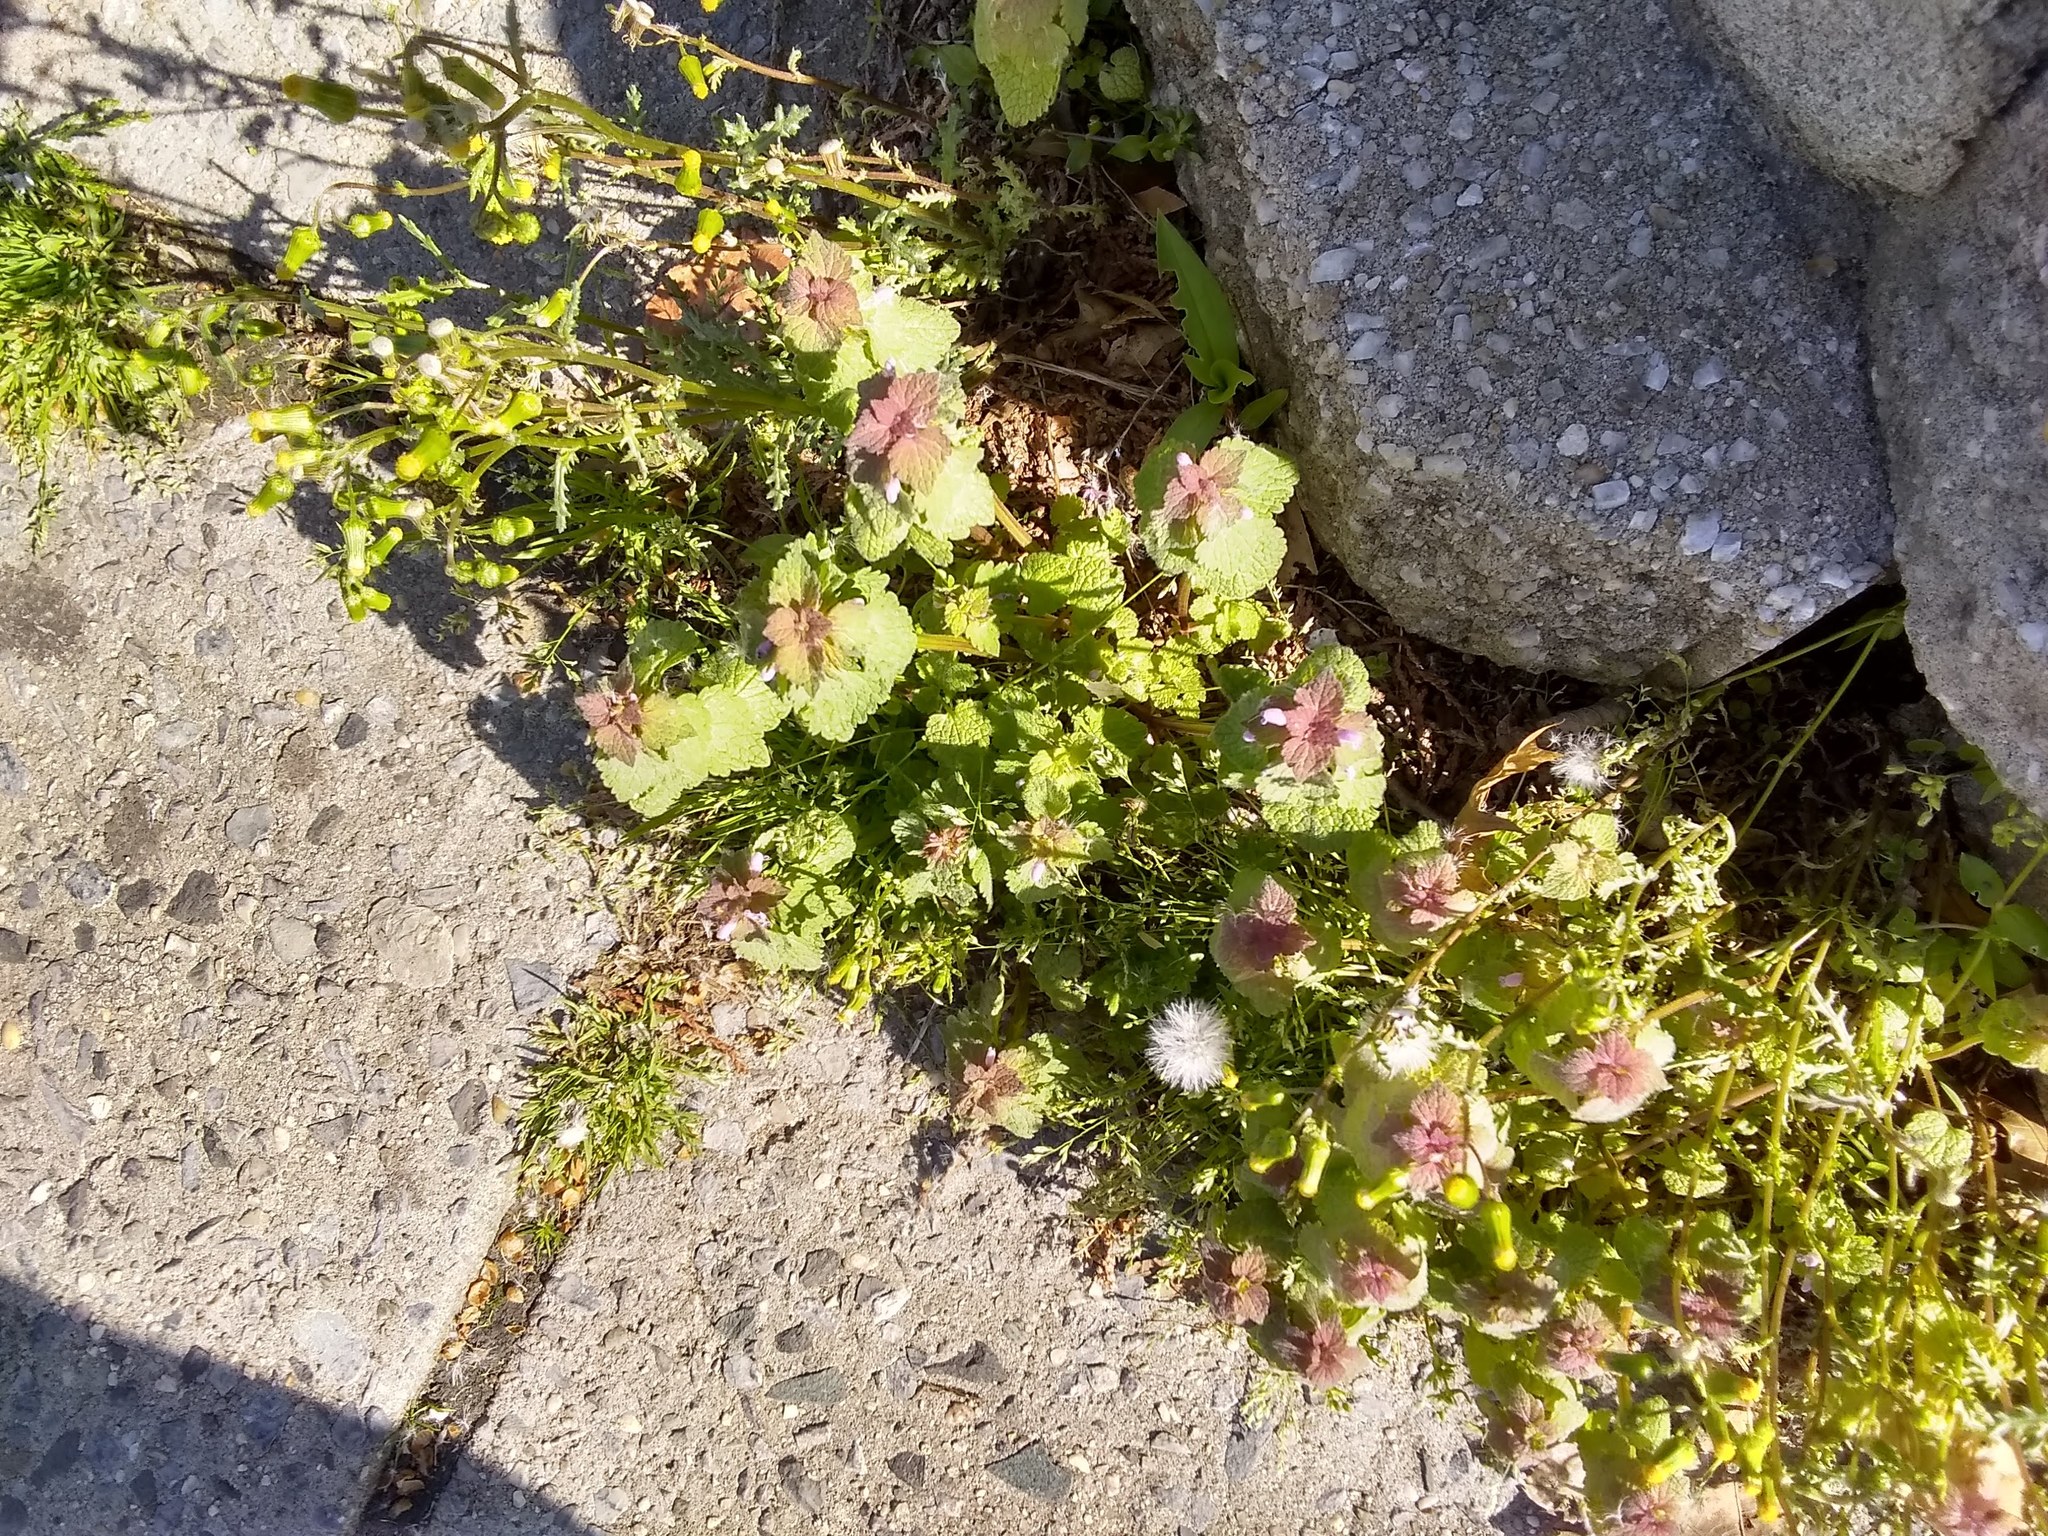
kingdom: Plantae
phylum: Tracheophyta
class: Magnoliopsida
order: Lamiales
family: Lamiaceae
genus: Lamium
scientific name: Lamium purpureum
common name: Red dead-nettle
